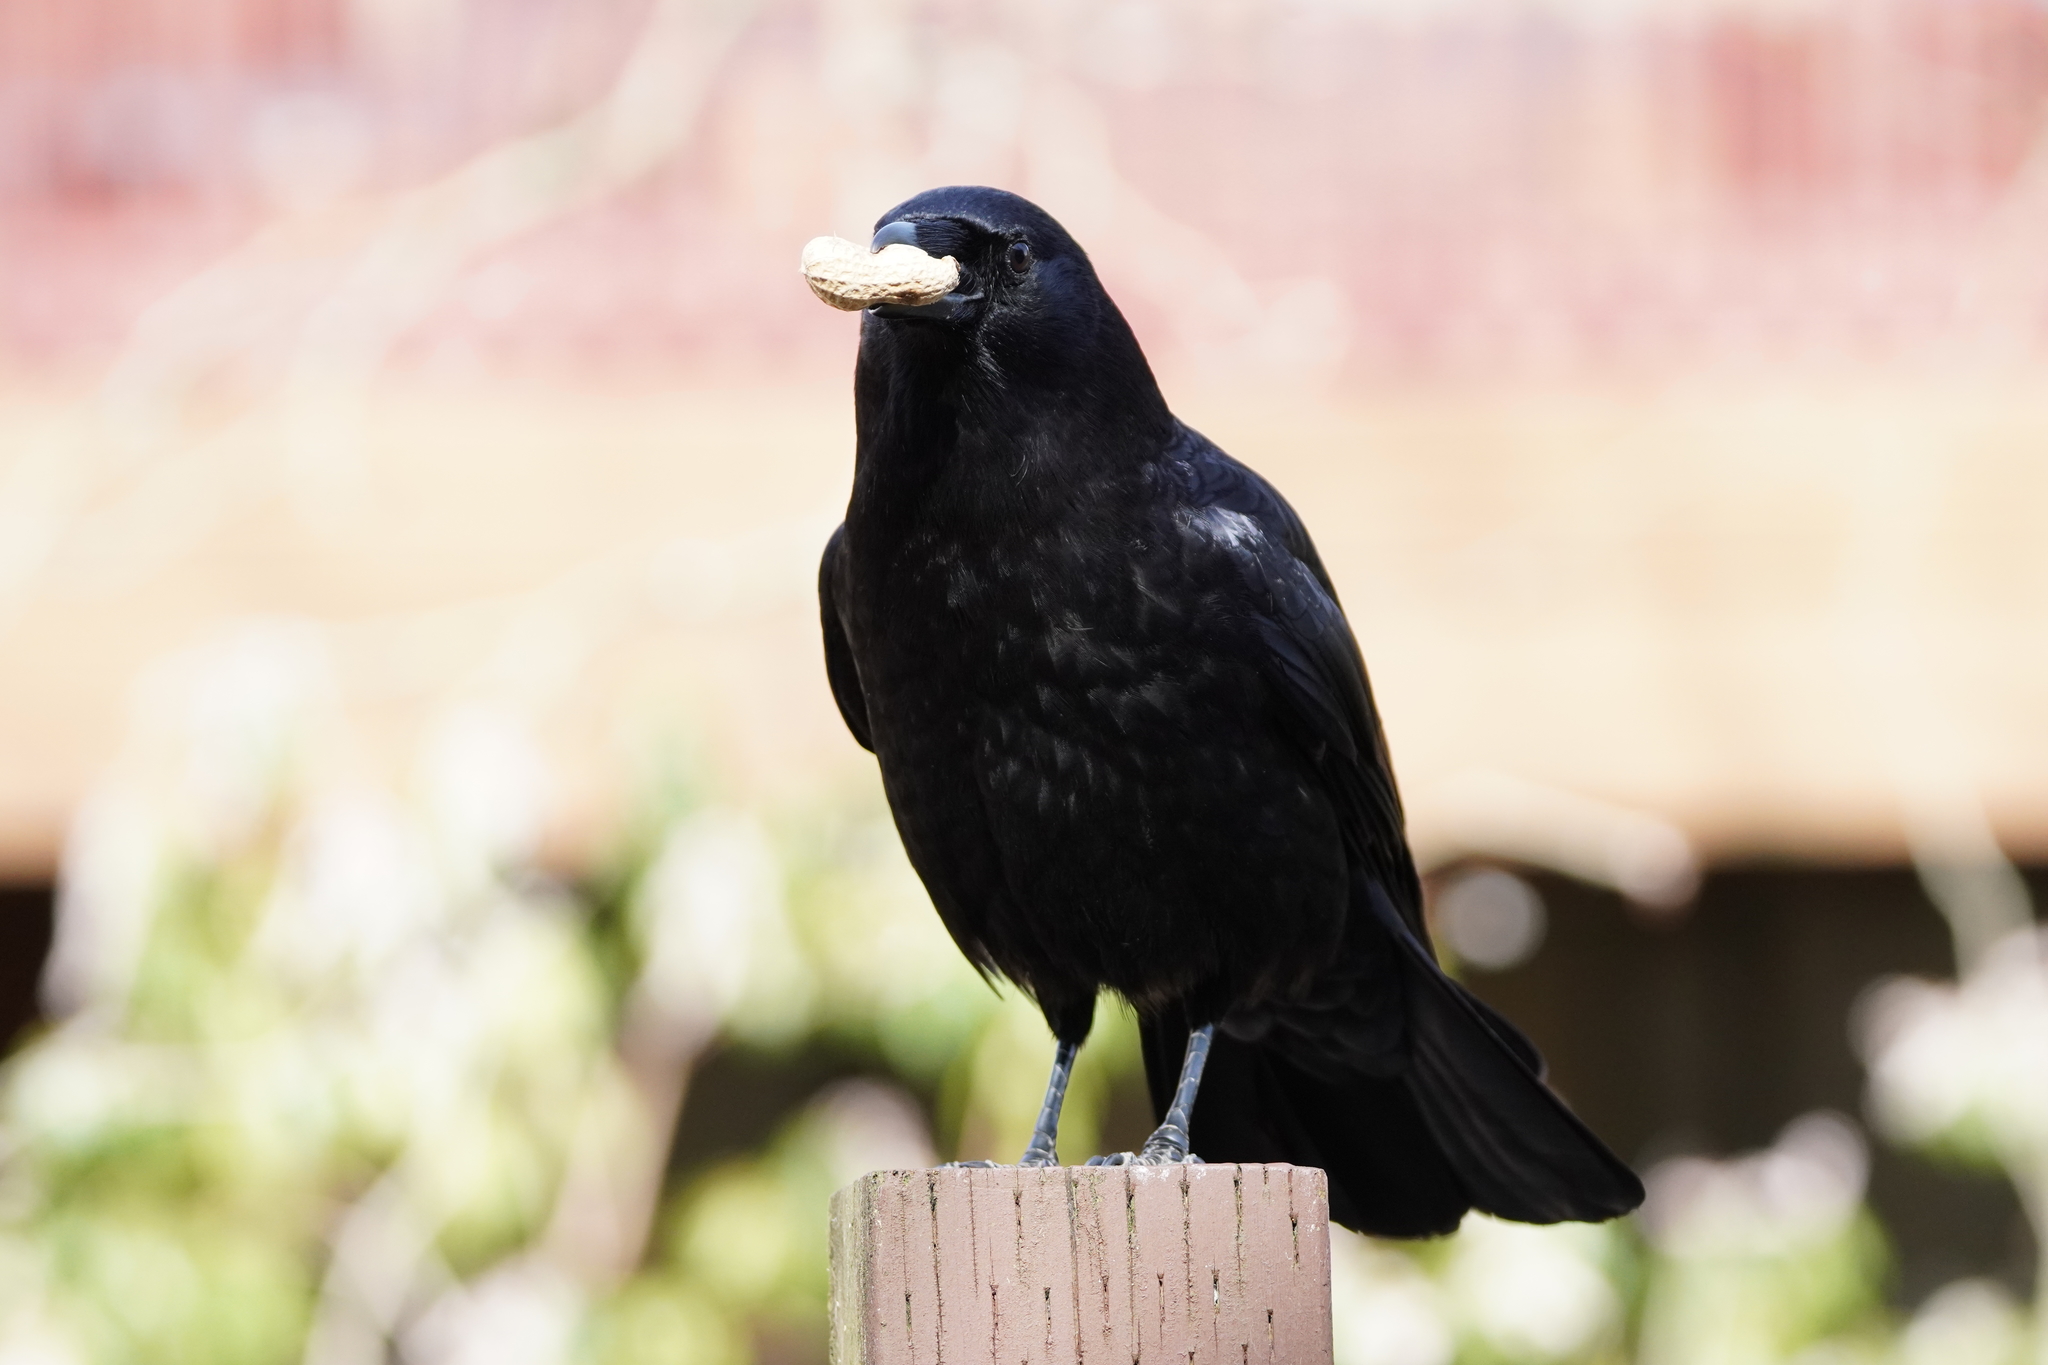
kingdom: Animalia
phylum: Chordata
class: Aves
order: Passeriformes
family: Corvidae
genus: Corvus
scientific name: Corvus brachyrhynchos
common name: American crow
